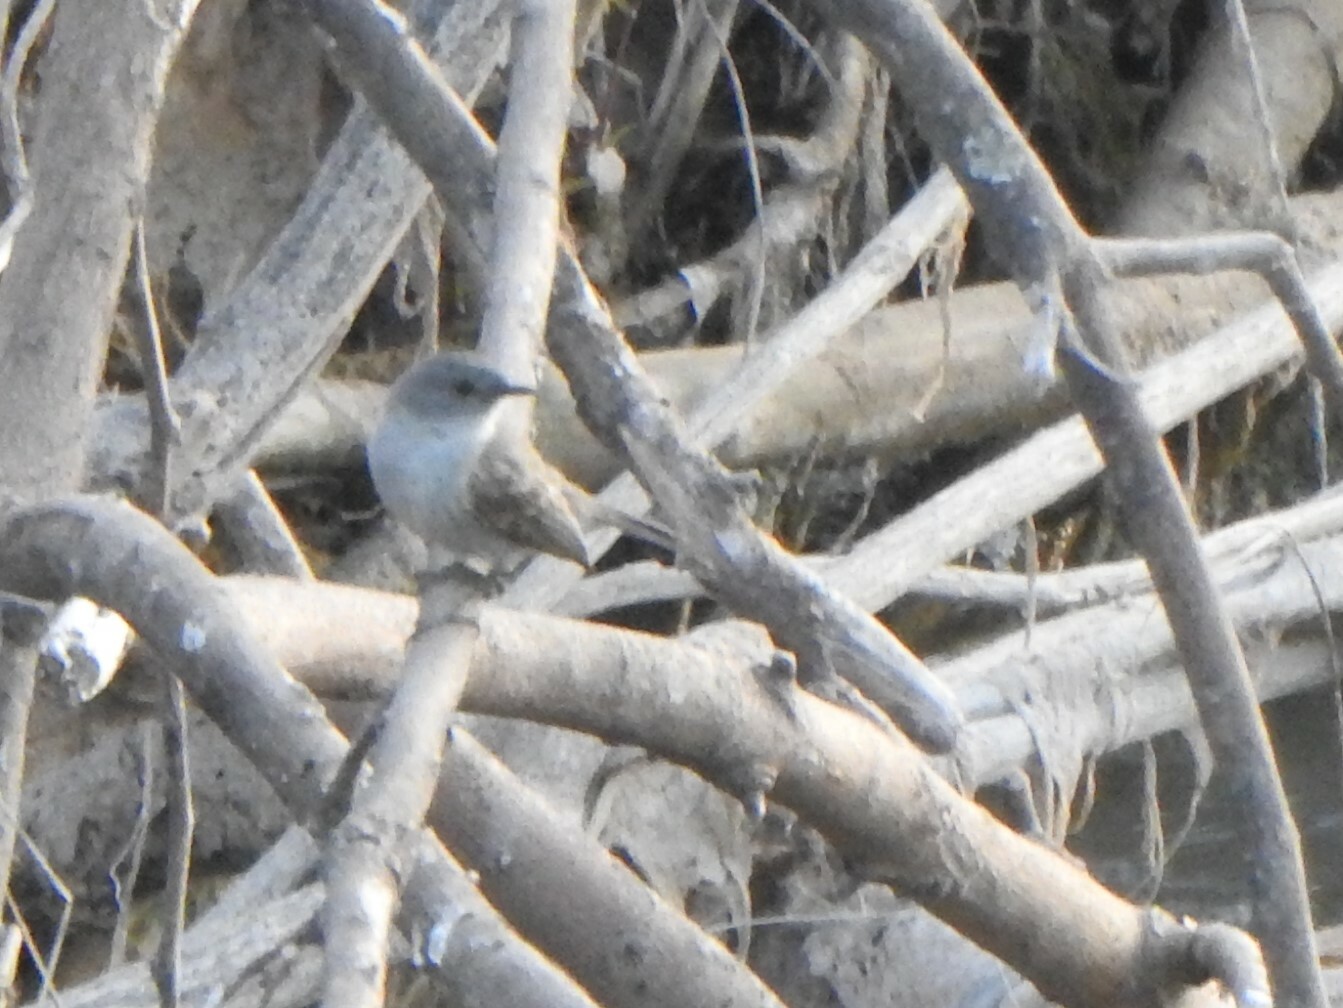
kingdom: Animalia
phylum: Chordata
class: Aves
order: Passeriformes
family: Tyrannidae
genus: Serpophaga
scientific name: Serpophaga nigricans
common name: Sooty tyrannulet
